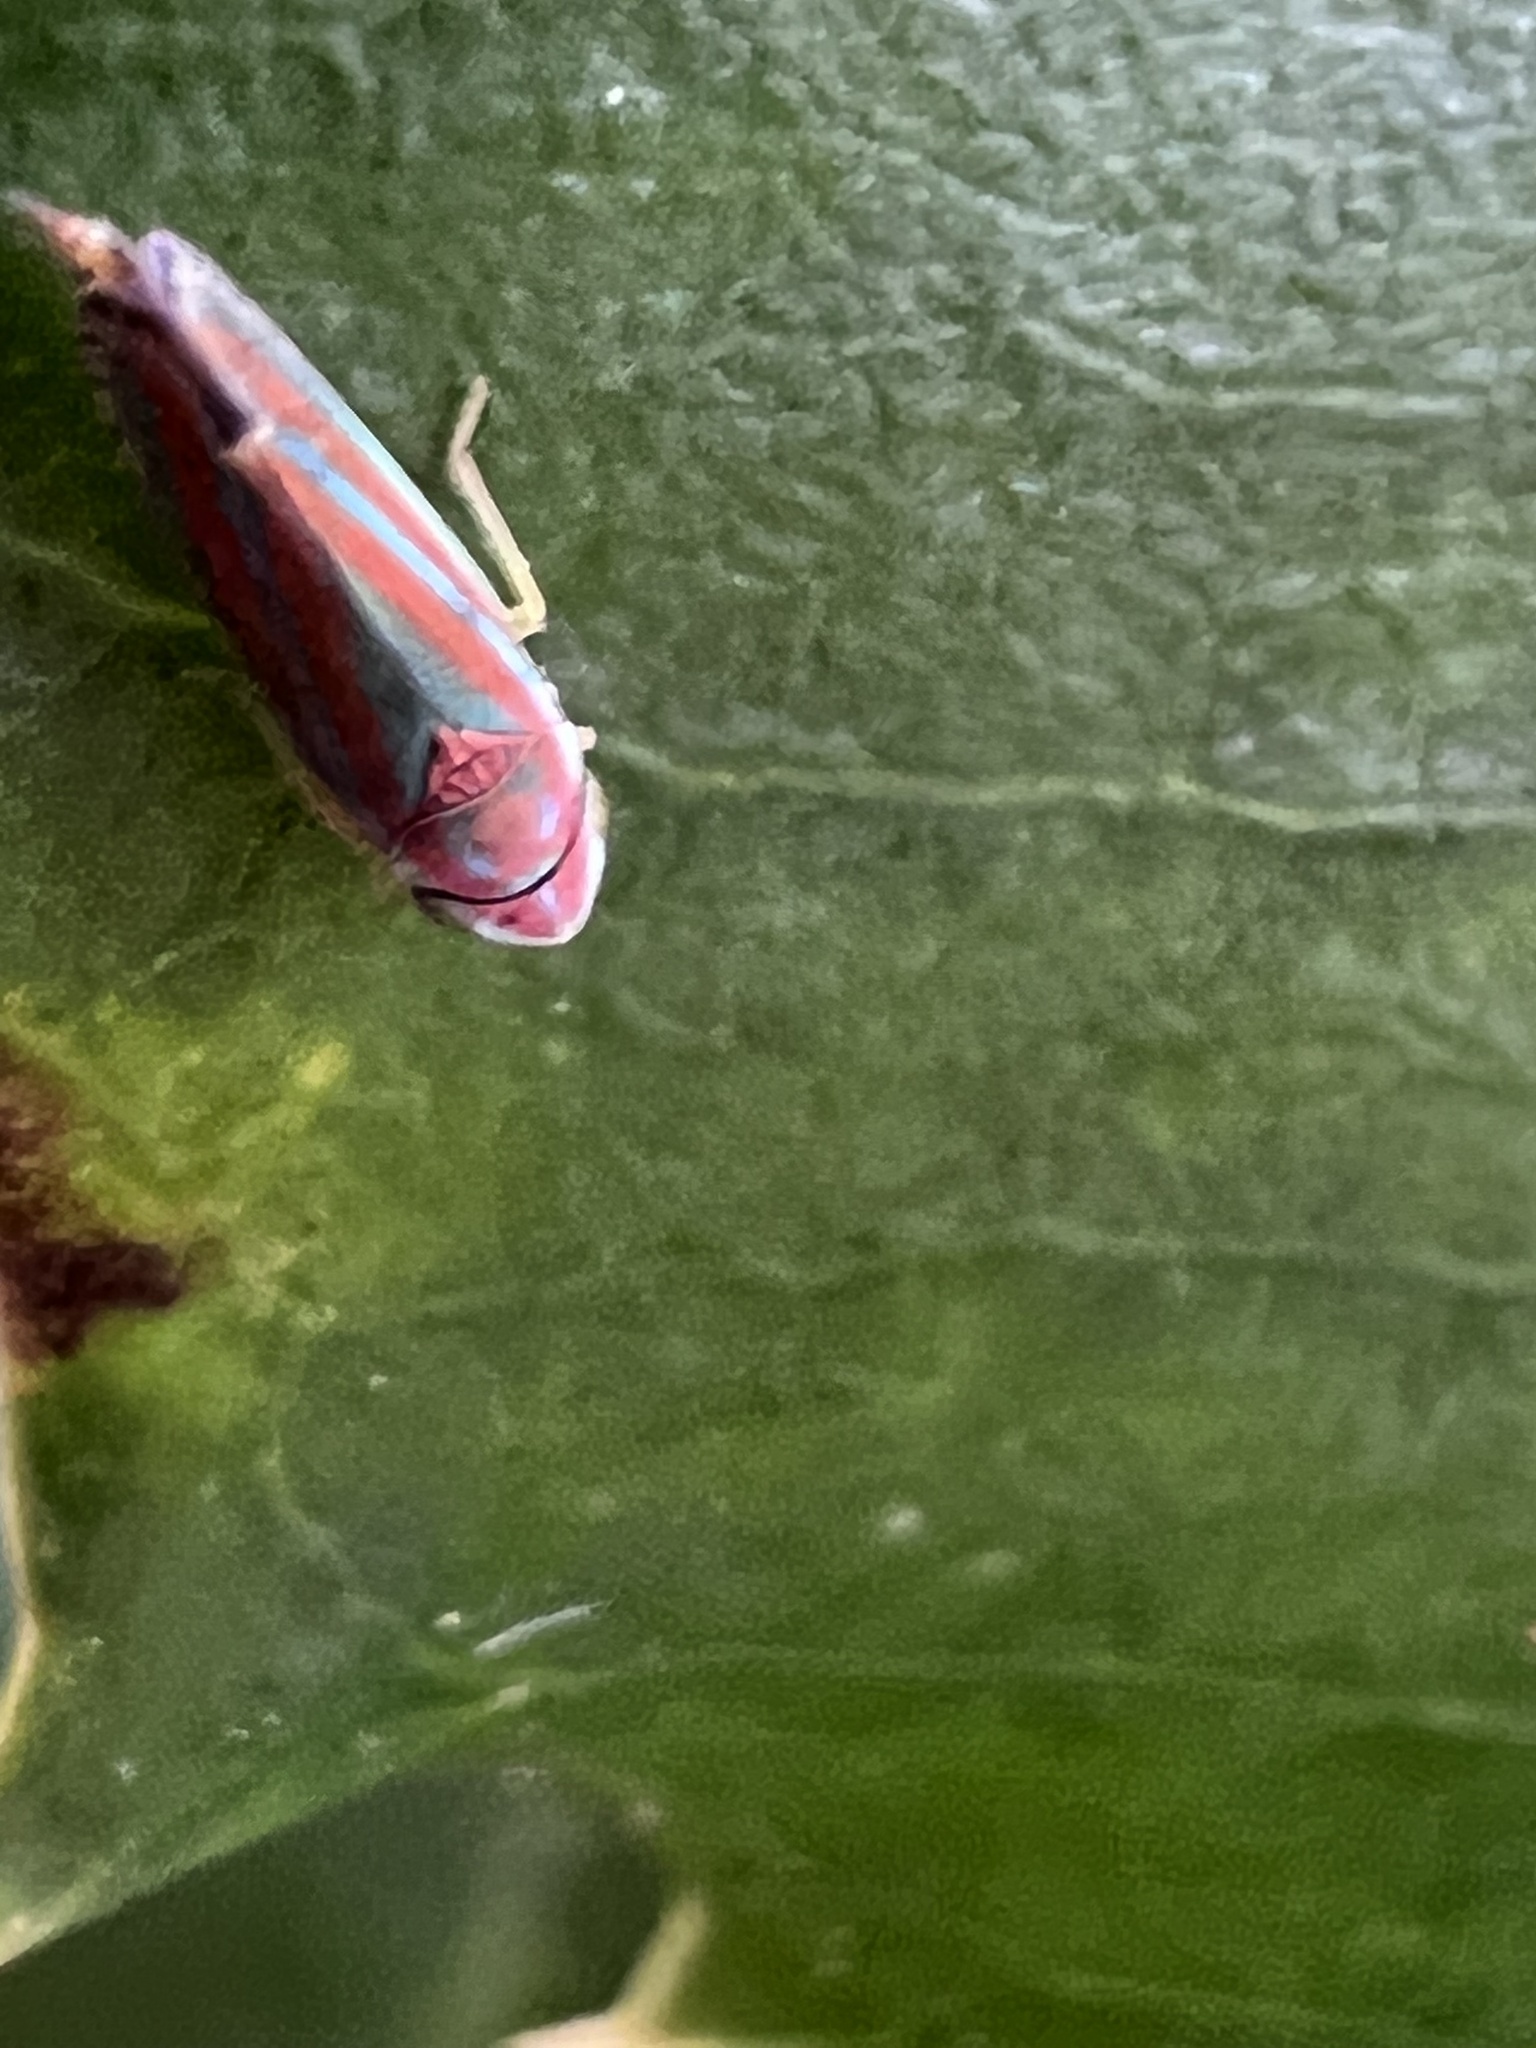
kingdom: Animalia
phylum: Arthropoda
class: Insecta
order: Hemiptera
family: Cicadellidae
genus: Graphocephala
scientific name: Graphocephala versuta
